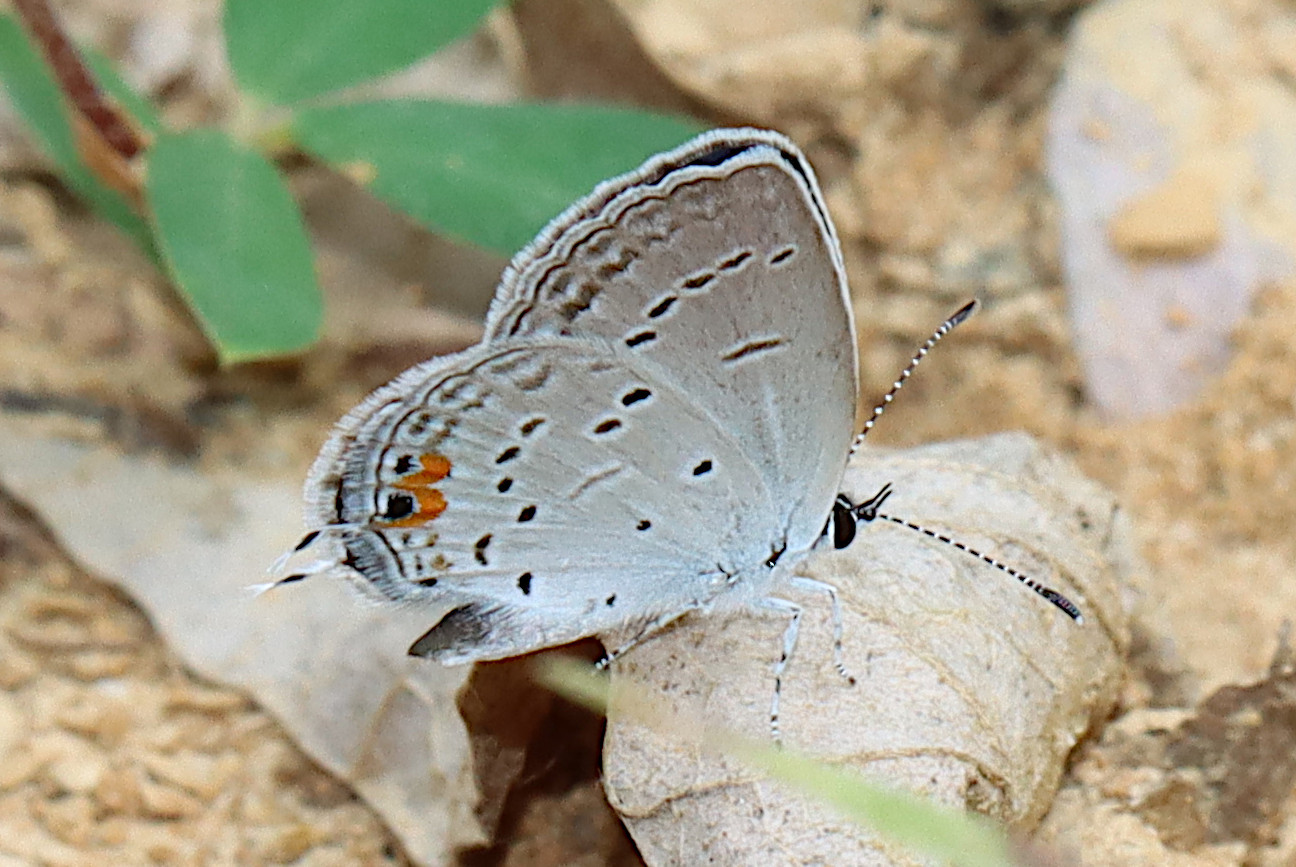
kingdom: Animalia
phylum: Arthropoda
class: Insecta
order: Lepidoptera
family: Lycaenidae
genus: Elkalyce
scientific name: Elkalyce comyntas
